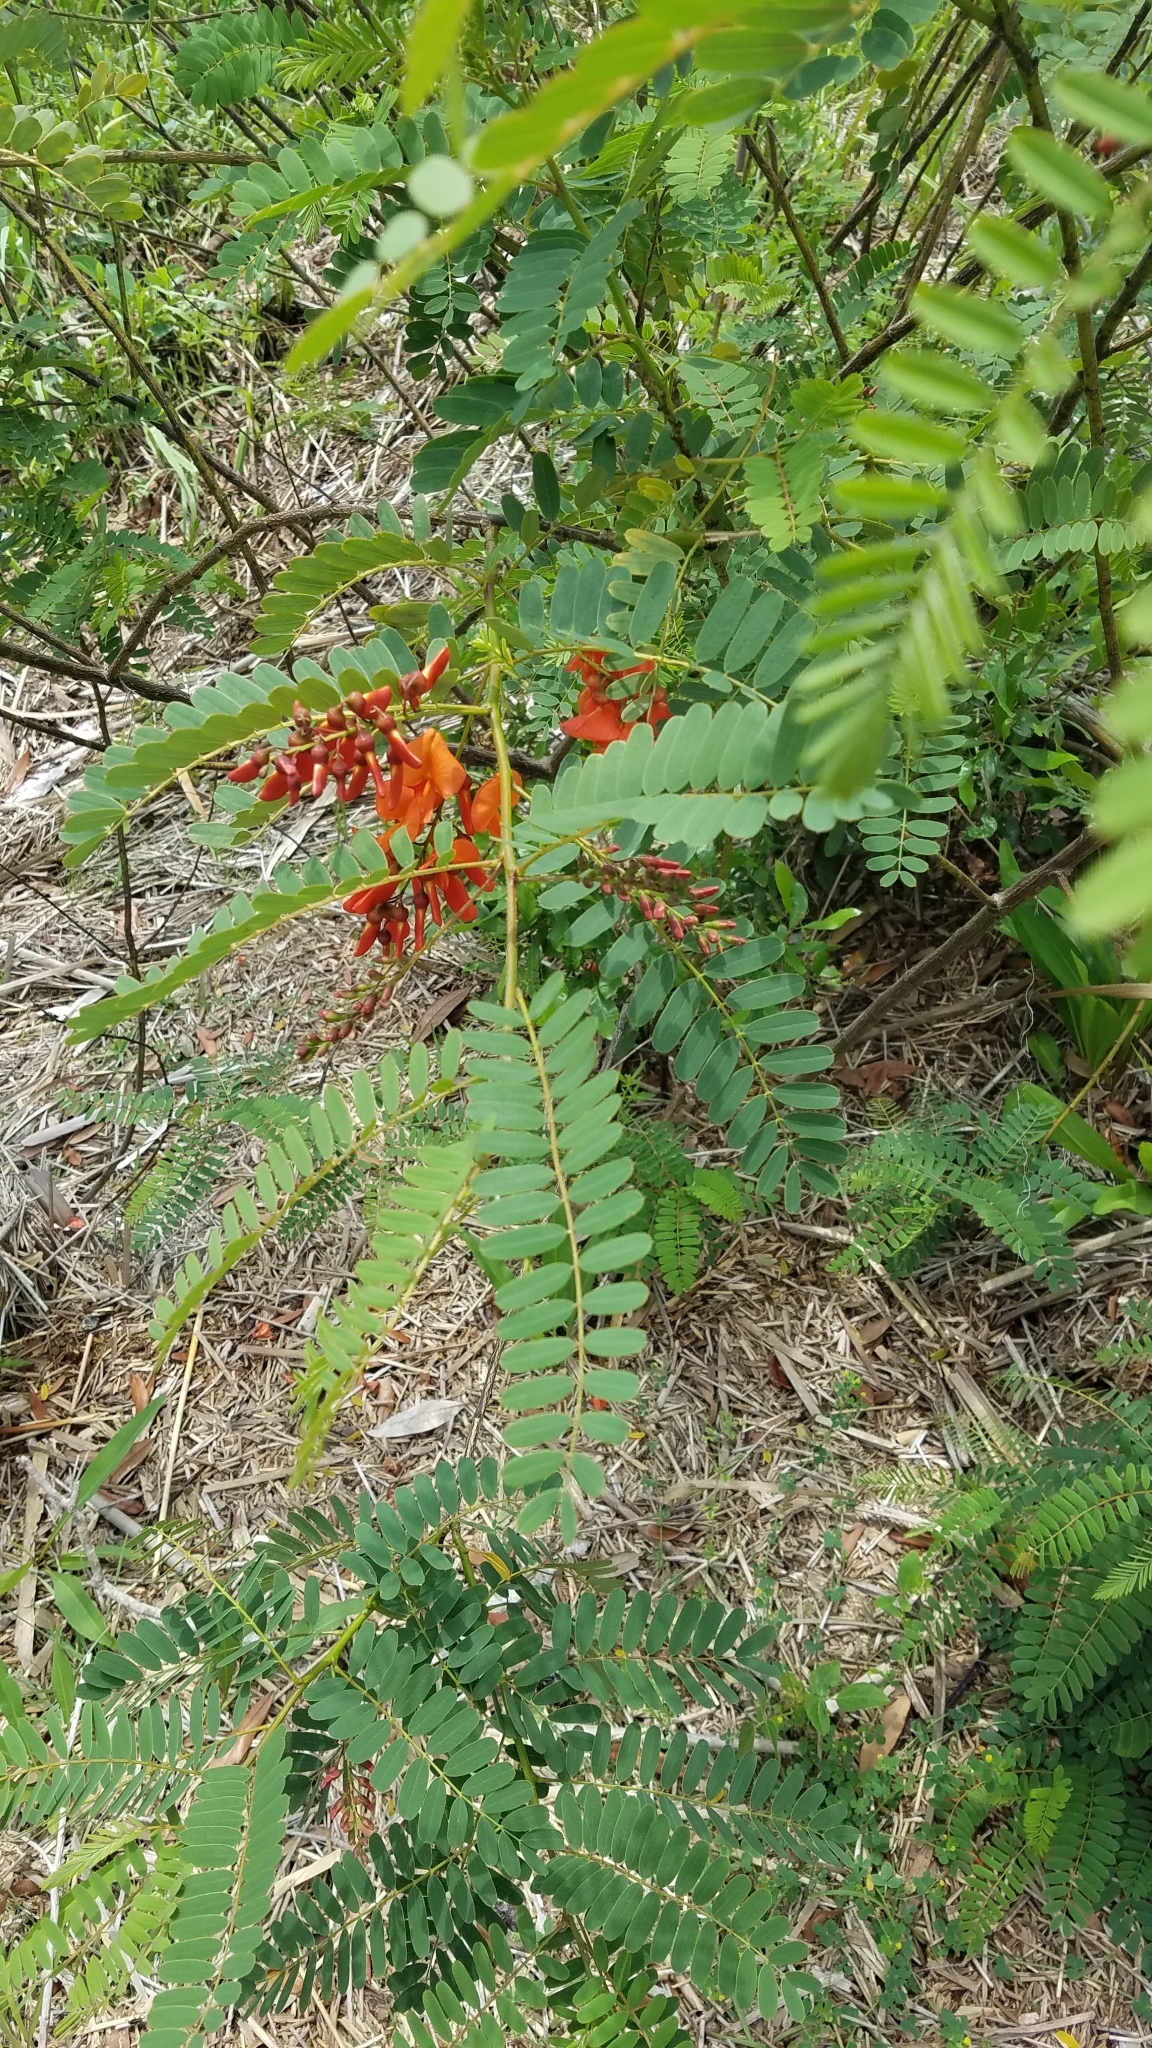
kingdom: Plantae
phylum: Tracheophyta
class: Magnoliopsida
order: Fabales
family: Fabaceae
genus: Sesbania
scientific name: Sesbania punicea
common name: Rattlebox
